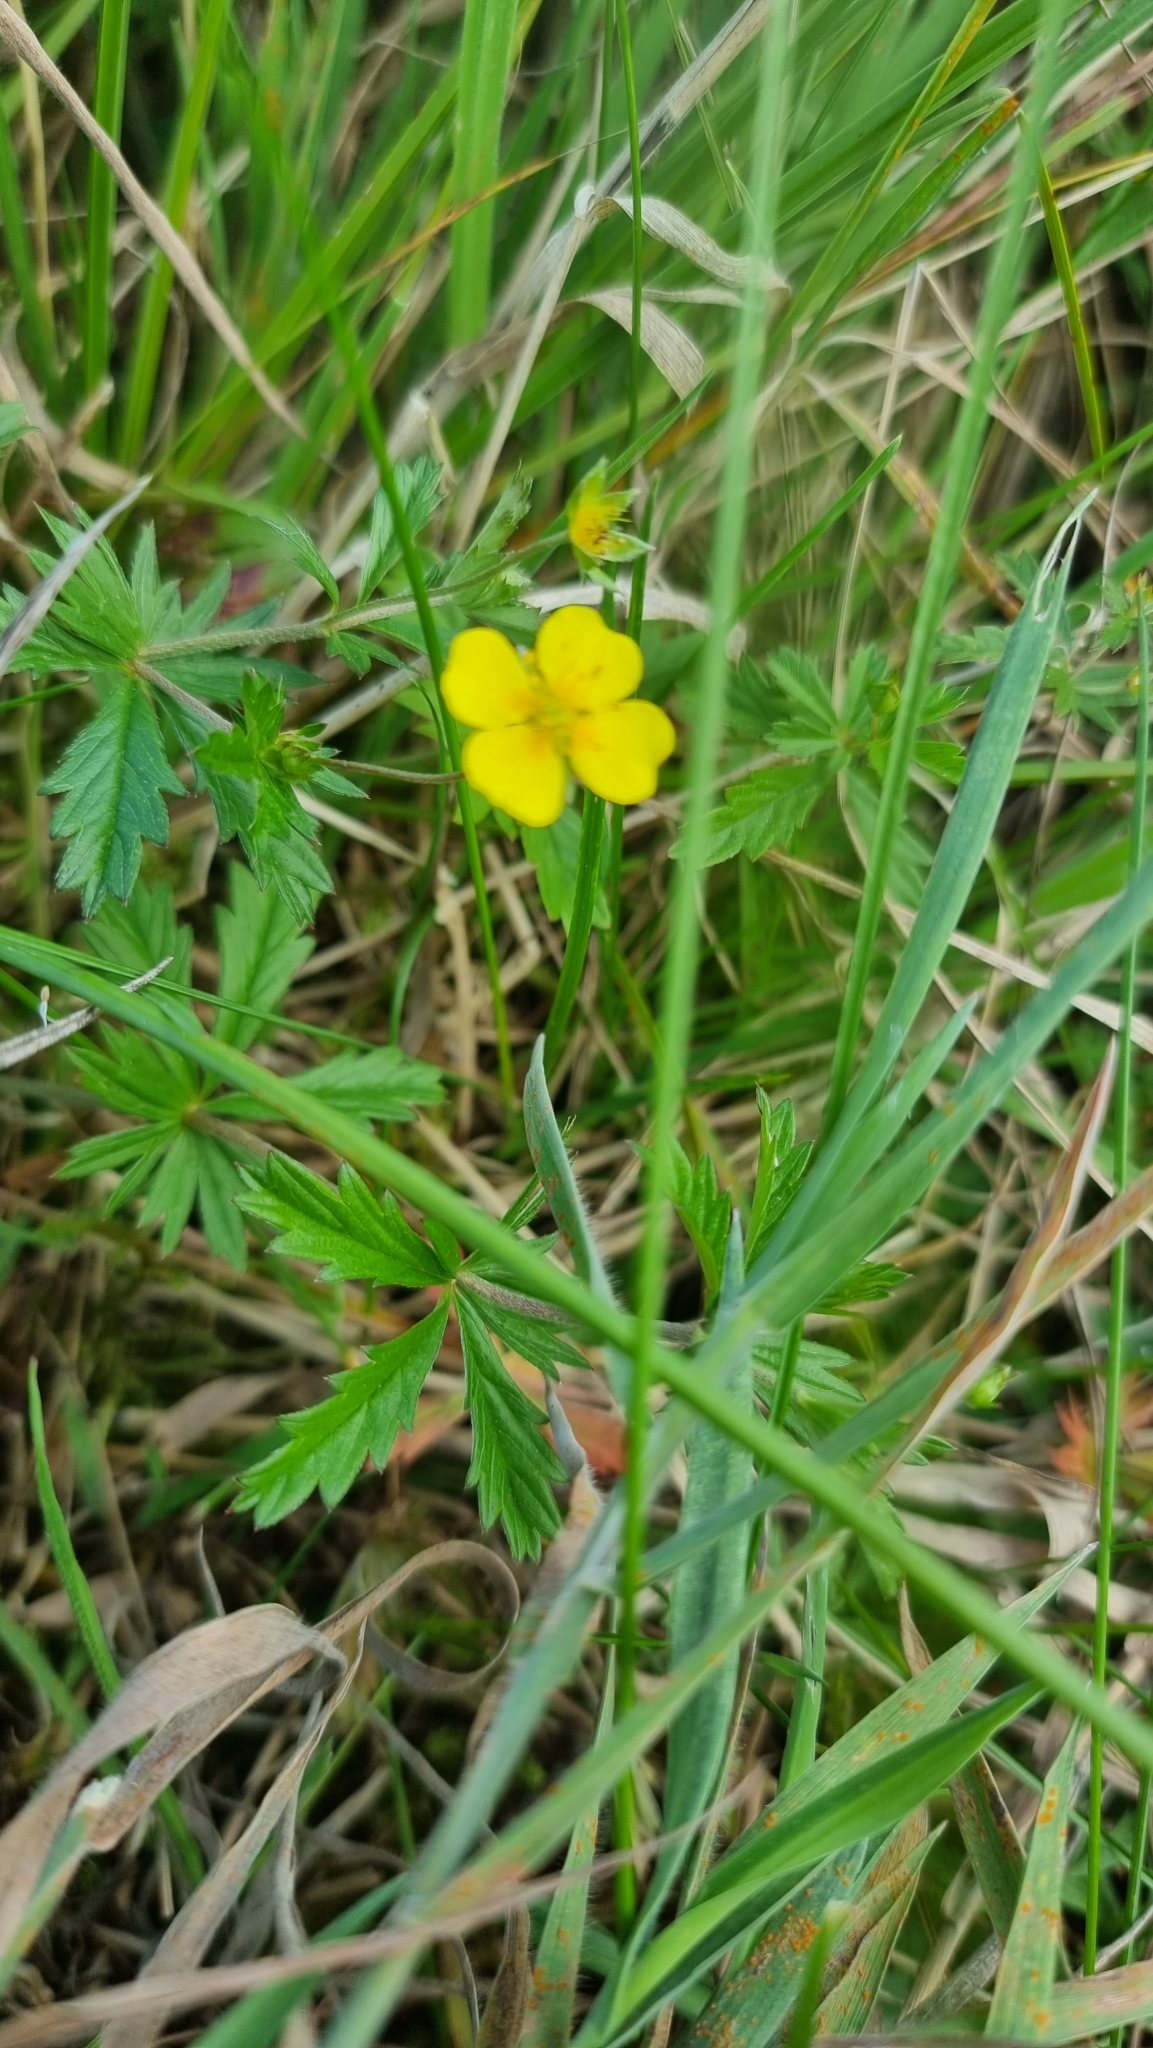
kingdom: Plantae
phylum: Tracheophyta
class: Magnoliopsida
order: Rosales
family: Rosaceae
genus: Potentilla
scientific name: Potentilla erecta
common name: Tormentil
